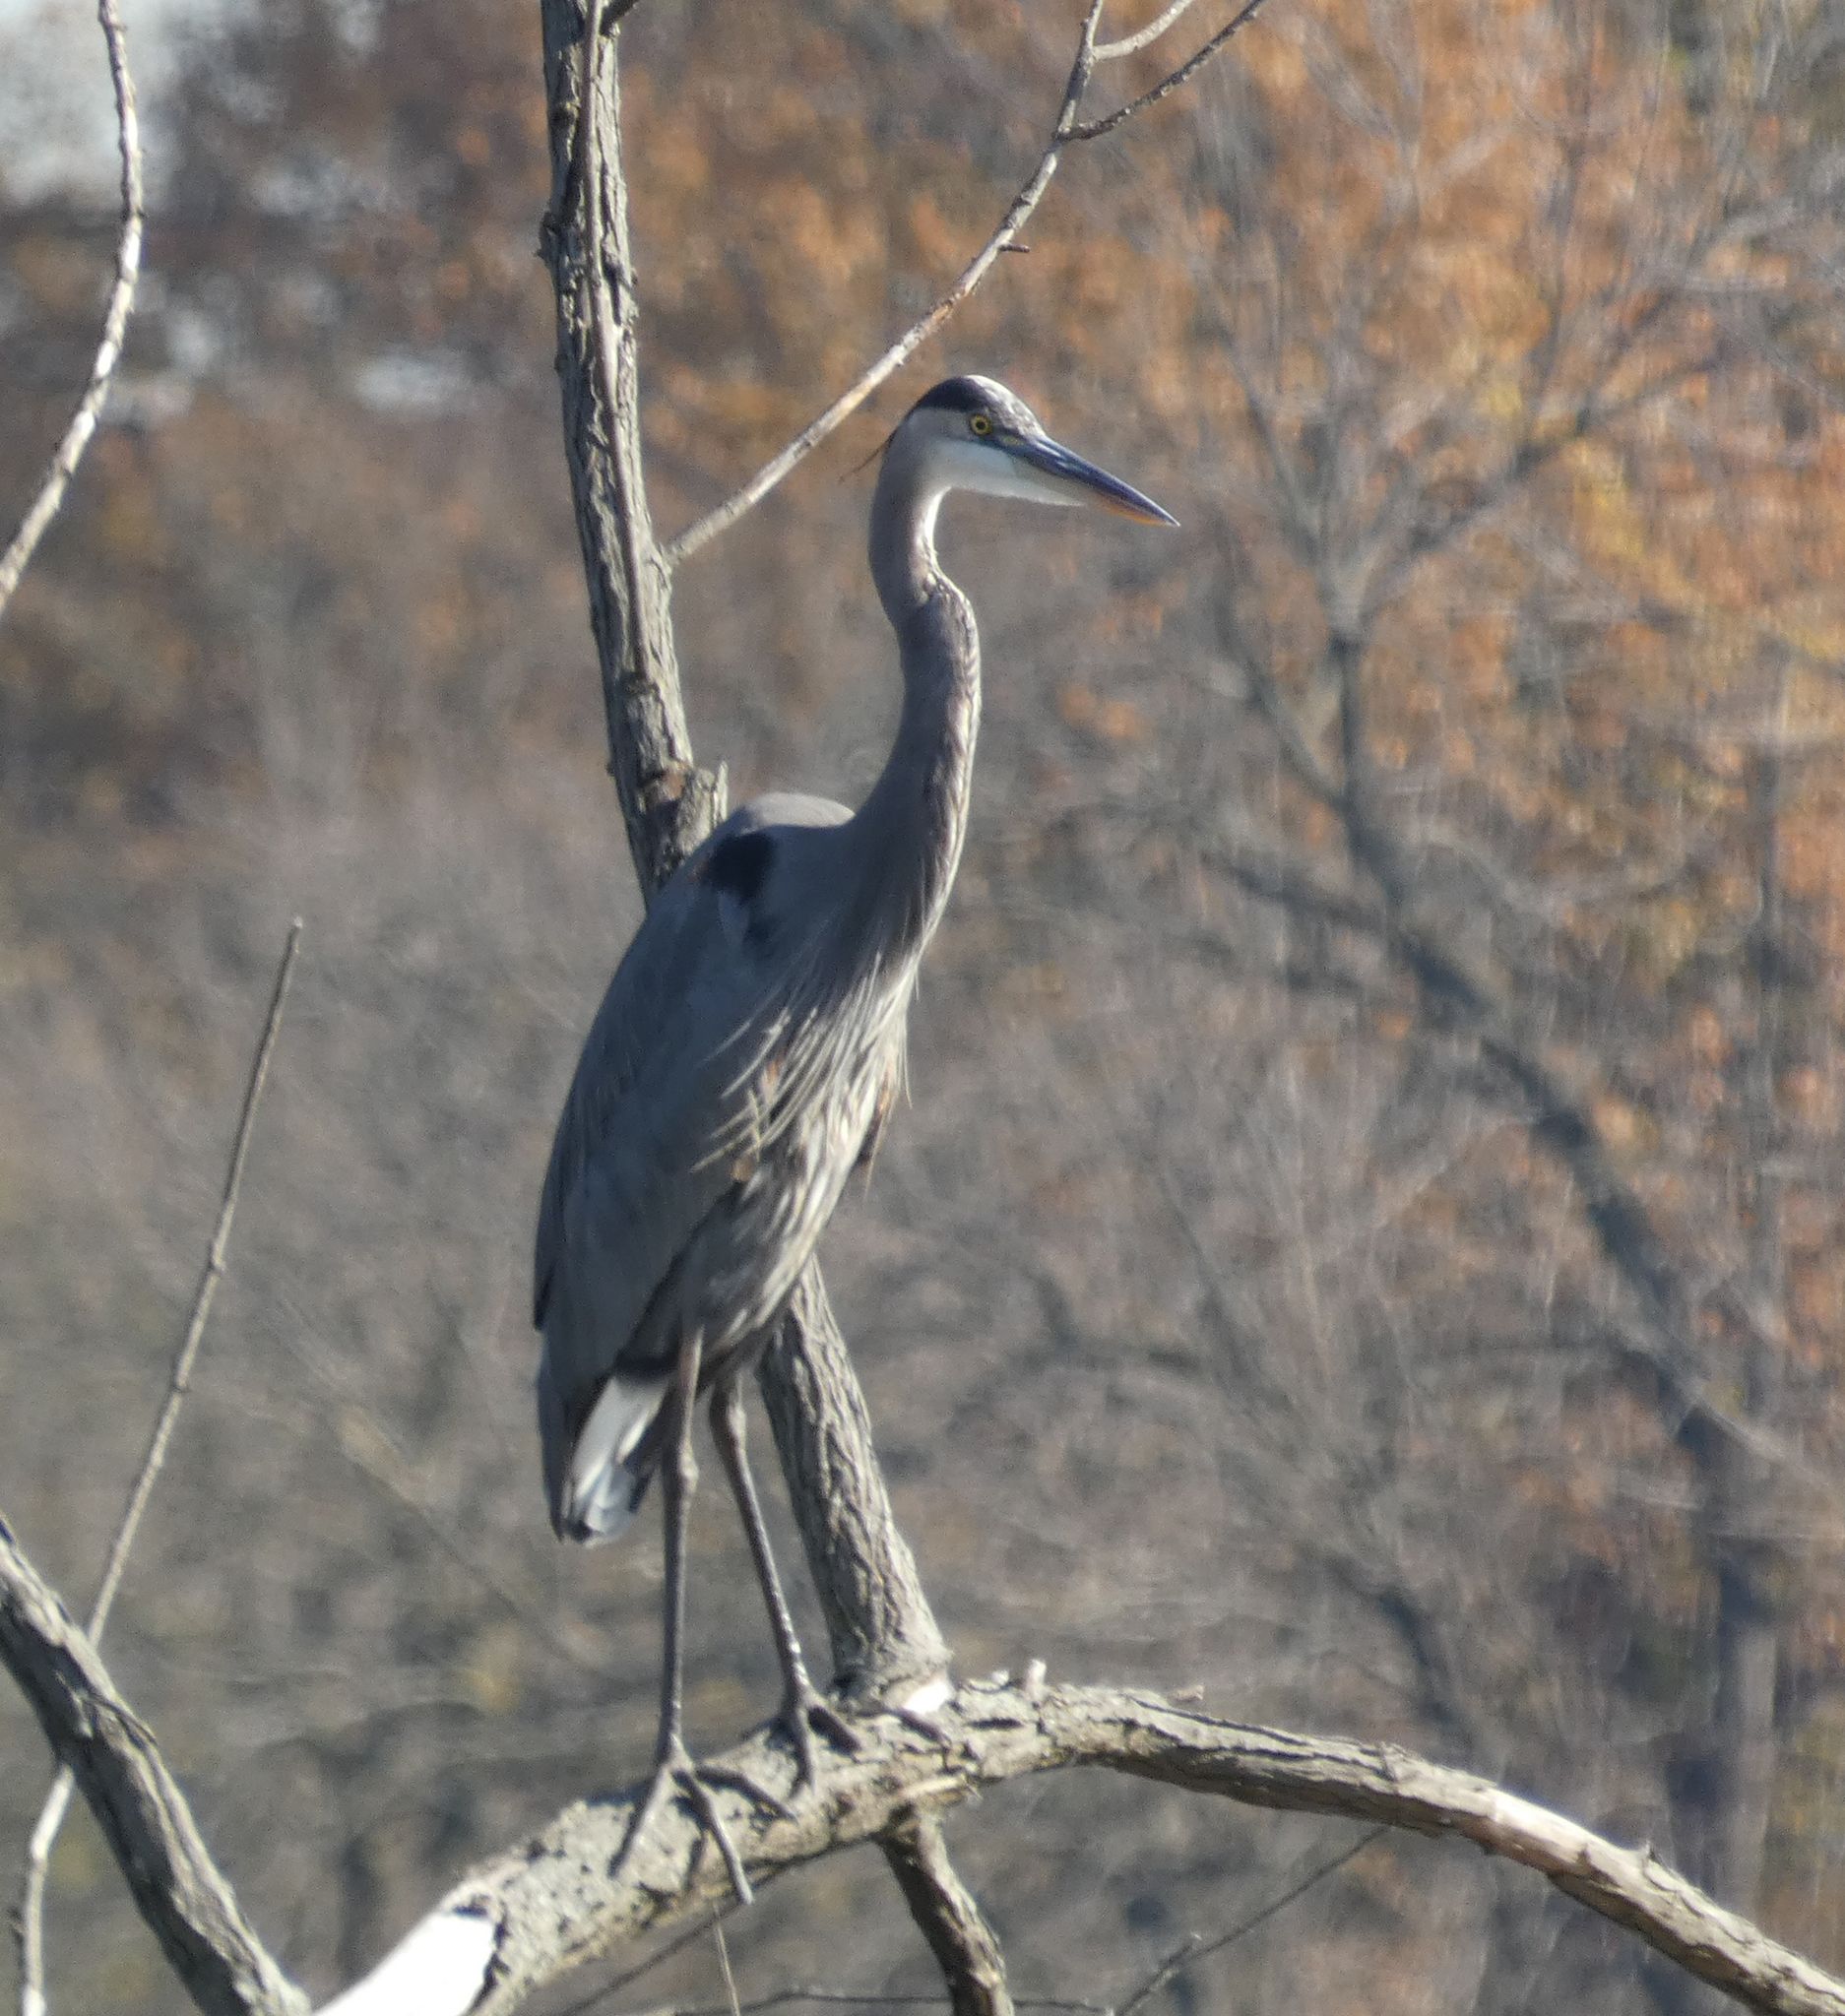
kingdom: Animalia
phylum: Chordata
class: Aves
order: Pelecaniformes
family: Ardeidae
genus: Ardea
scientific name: Ardea herodias
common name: Great blue heron
